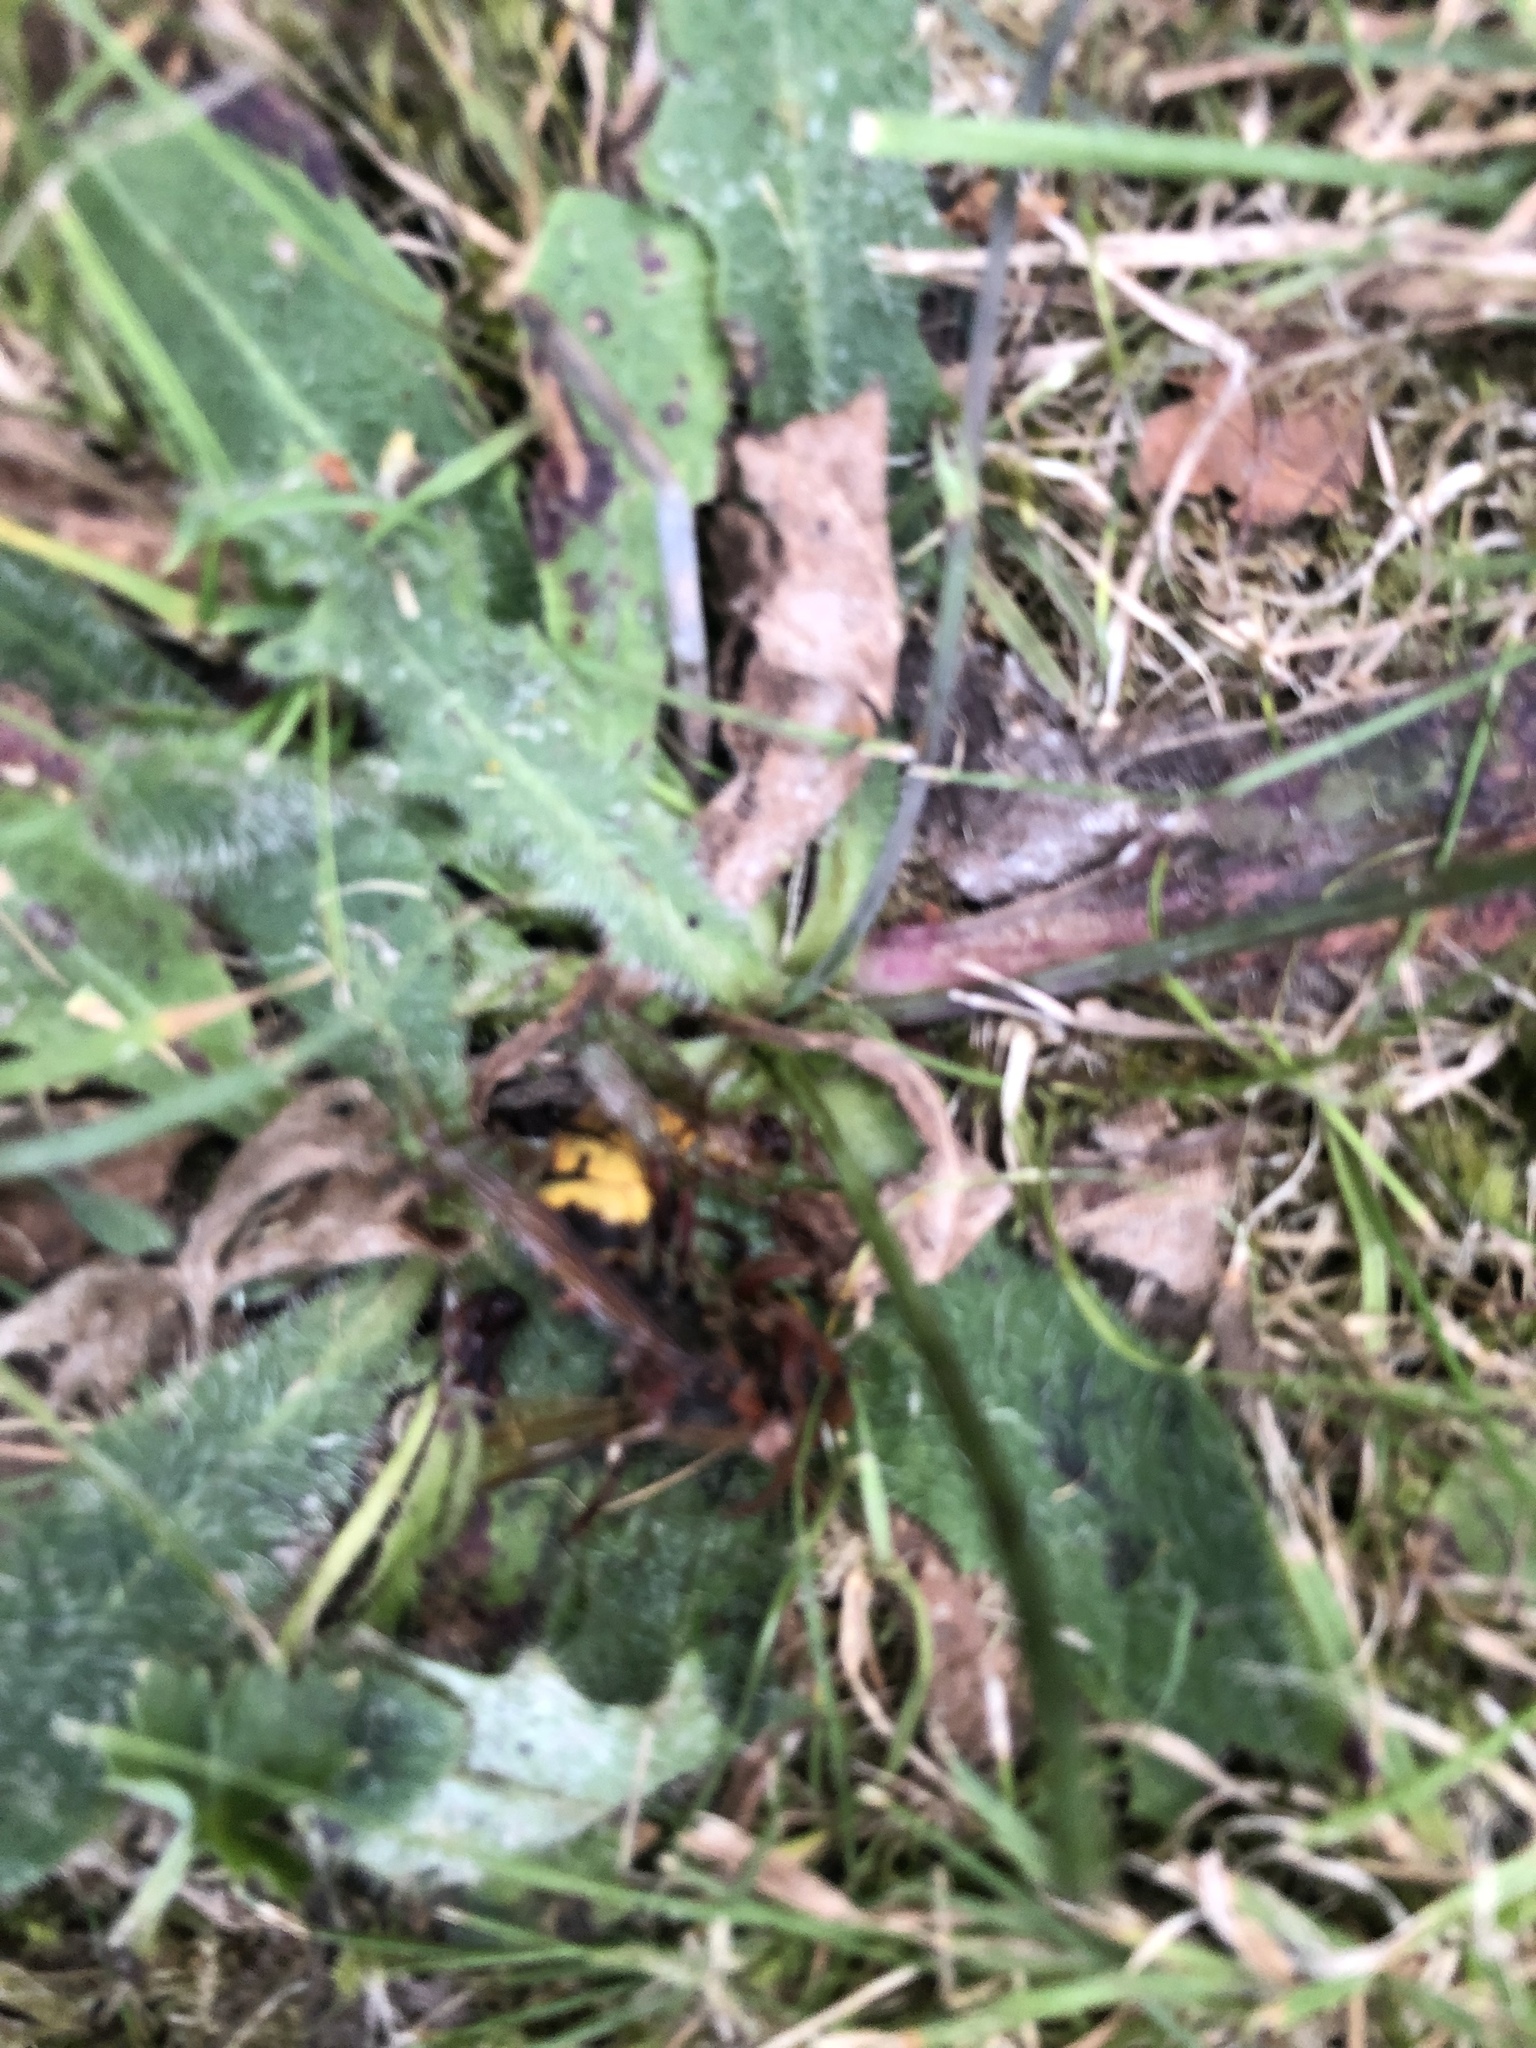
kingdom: Animalia
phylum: Arthropoda
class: Insecta
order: Hymenoptera
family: Vespidae
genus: Vespa
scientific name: Vespa crabro
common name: Hornet
